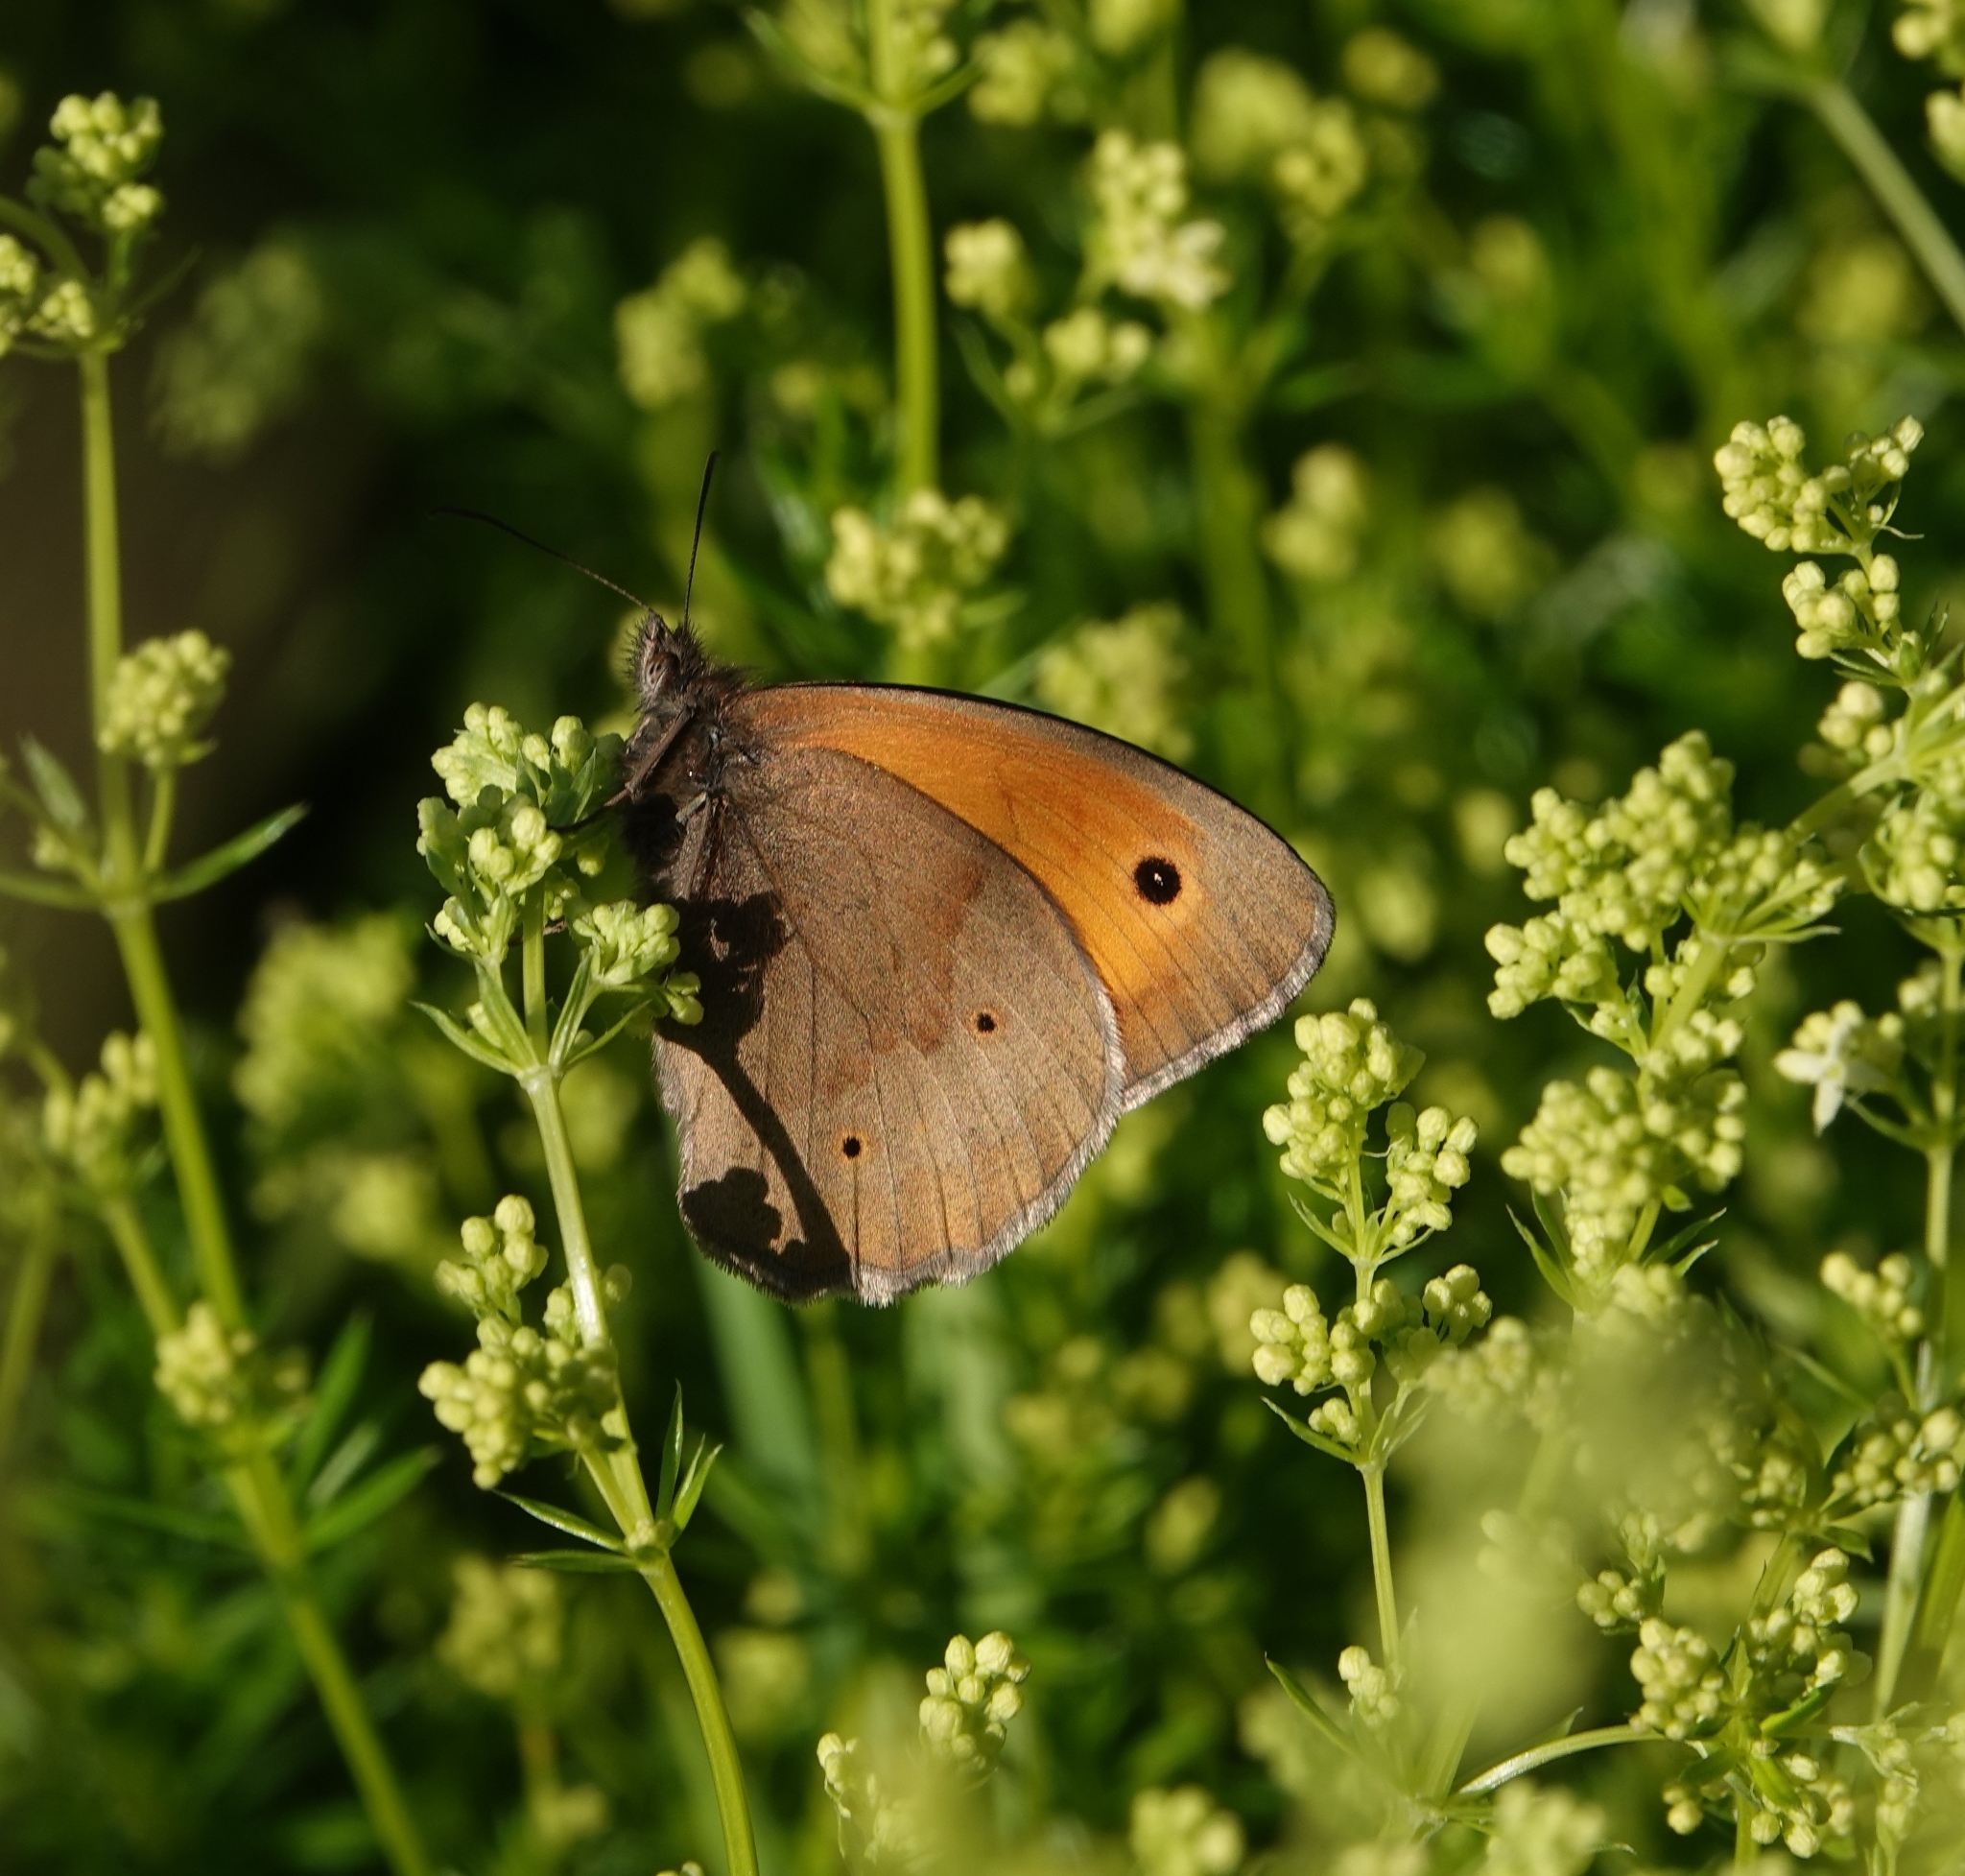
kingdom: Animalia
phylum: Arthropoda
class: Insecta
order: Lepidoptera
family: Nymphalidae
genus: Maniola
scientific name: Maniola jurtina
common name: Meadow brown
